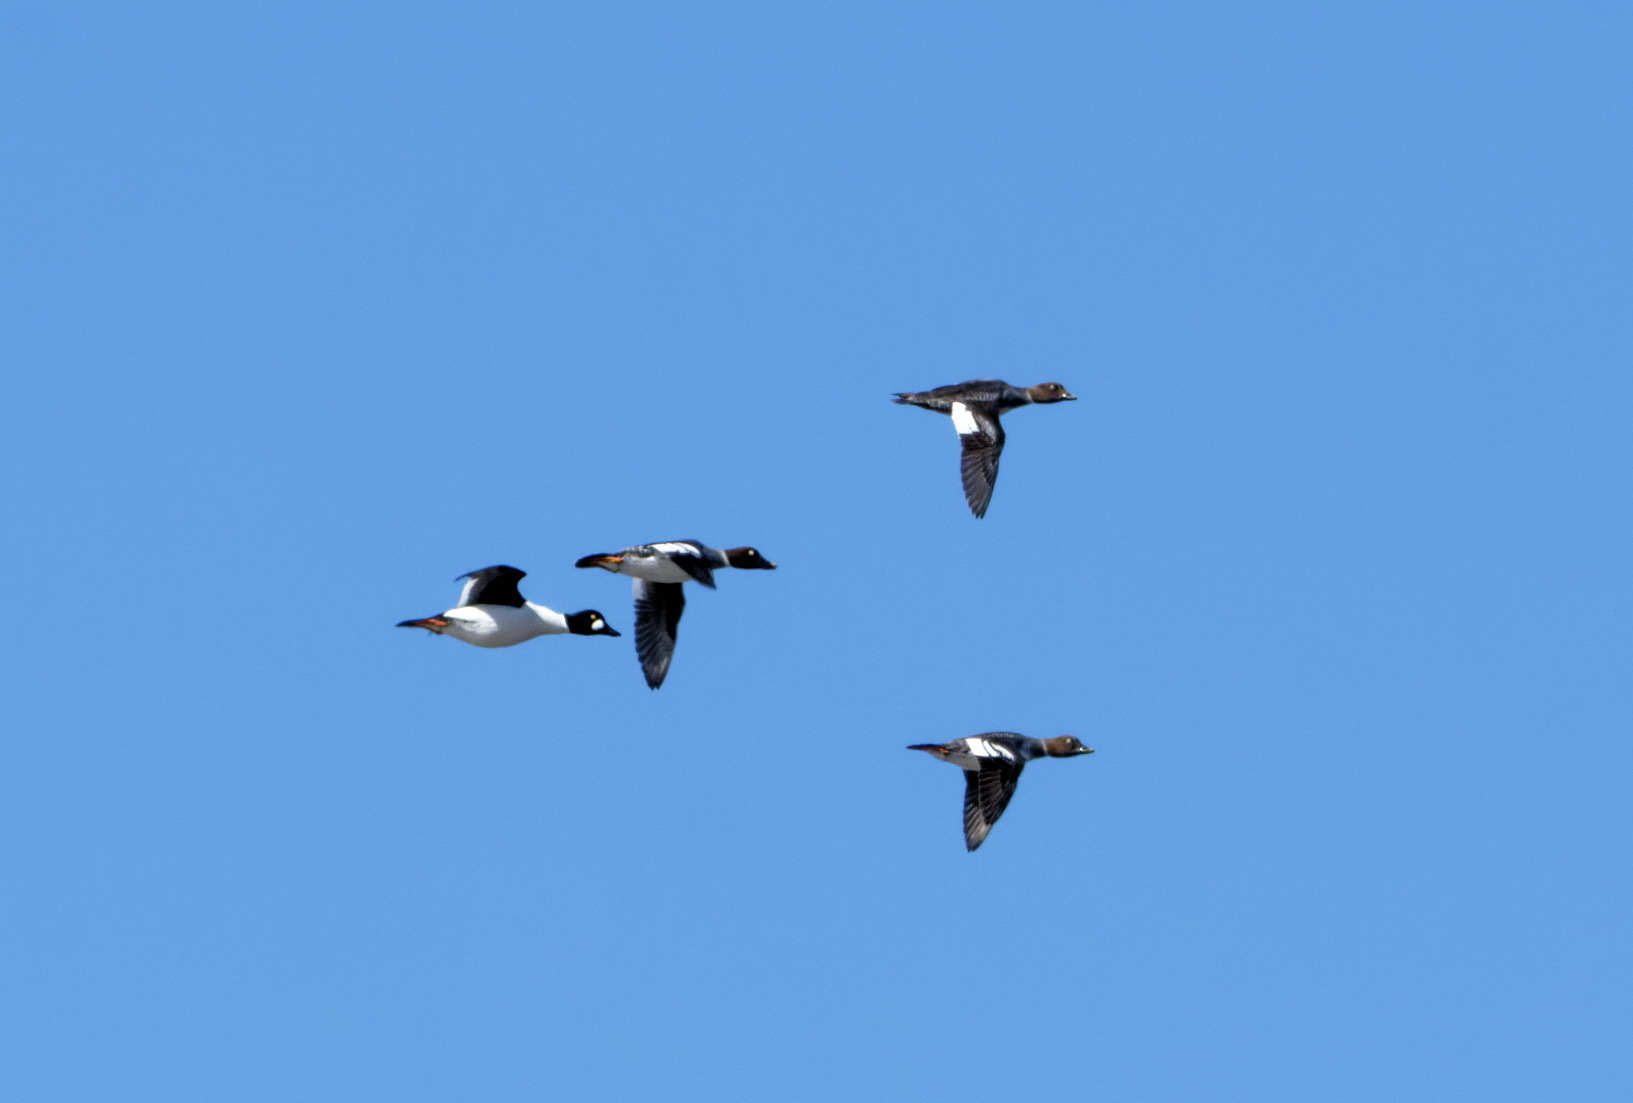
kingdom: Animalia
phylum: Chordata
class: Aves
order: Anseriformes
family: Anatidae
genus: Bucephala
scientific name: Bucephala clangula
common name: Common goldeneye
